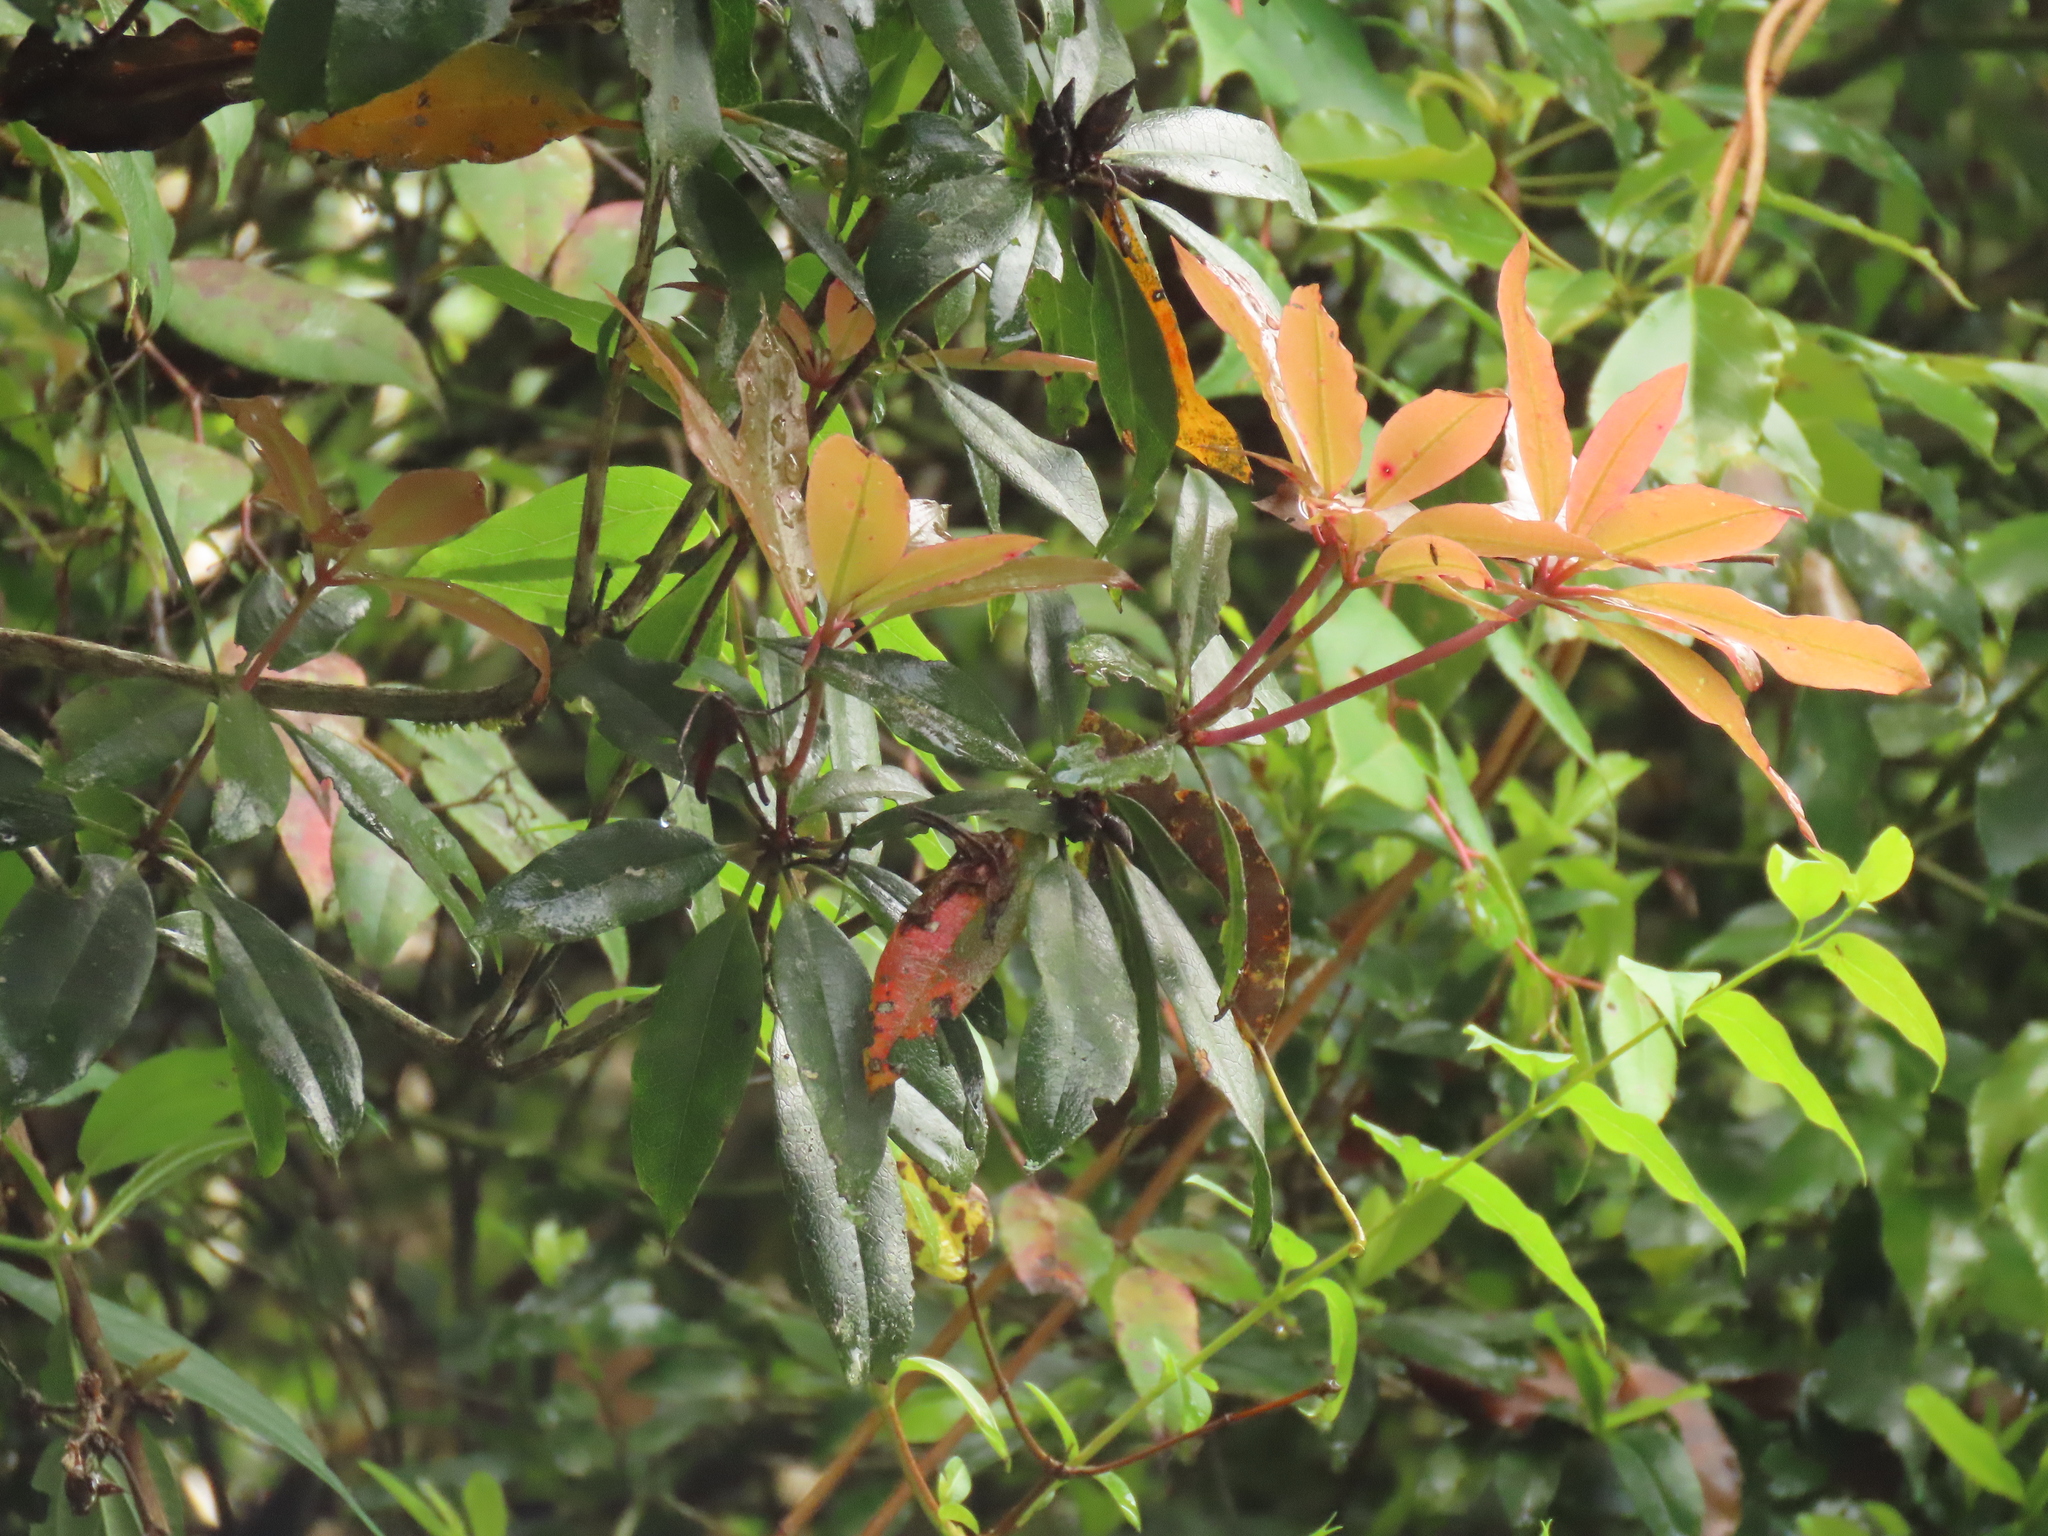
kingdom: Plantae
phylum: Tracheophyta
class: Magnoliopsida
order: Ericales
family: Ericaceae
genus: Rhododendron
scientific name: Rhododendron latoucheae
